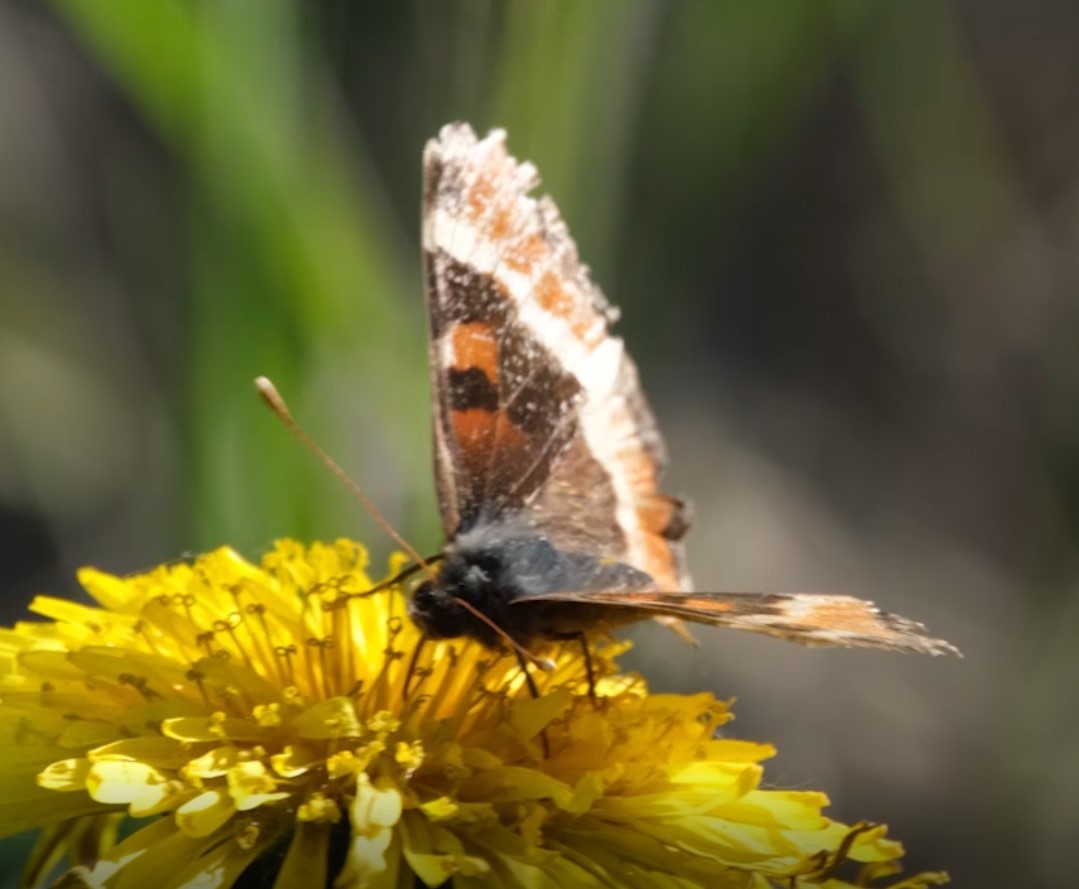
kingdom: Animalia
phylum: Arthropoda
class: Insecta
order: Lepidoptera
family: Nymphalidae
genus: Aglais
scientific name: Aglais milberti
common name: Milbert's tortoiseshell
